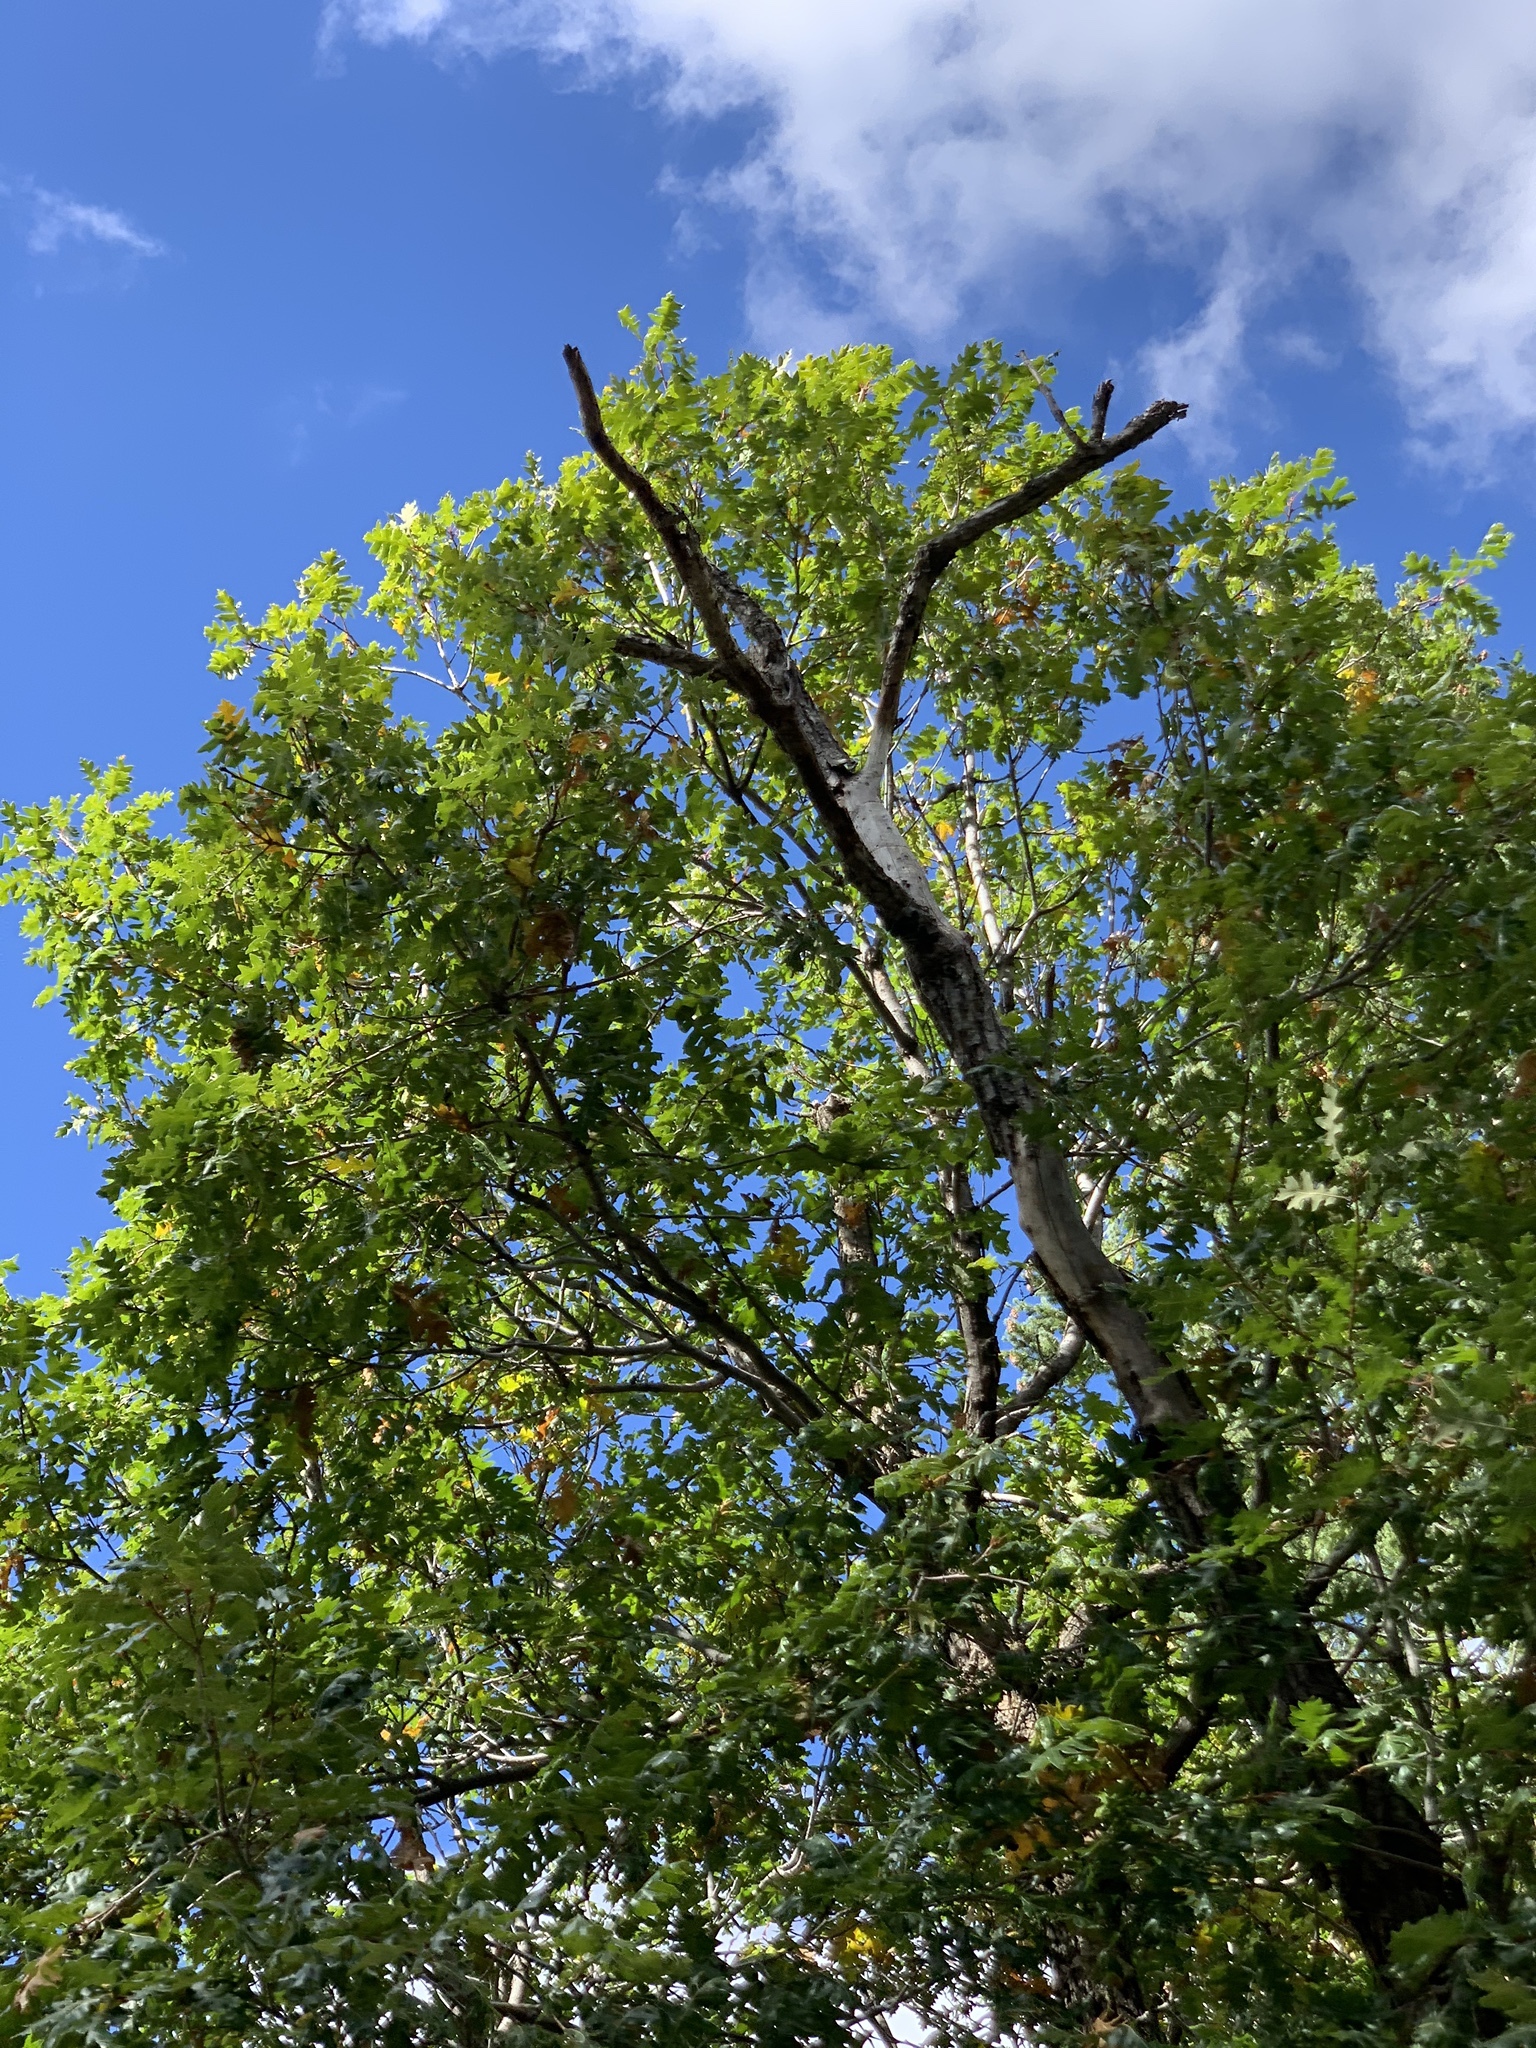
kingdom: Plantae
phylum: Tracheophyta
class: Magnoliopsida
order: Fagales
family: Fagaceae
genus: Quercus
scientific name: Quercus gambelii
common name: Gambel oak
